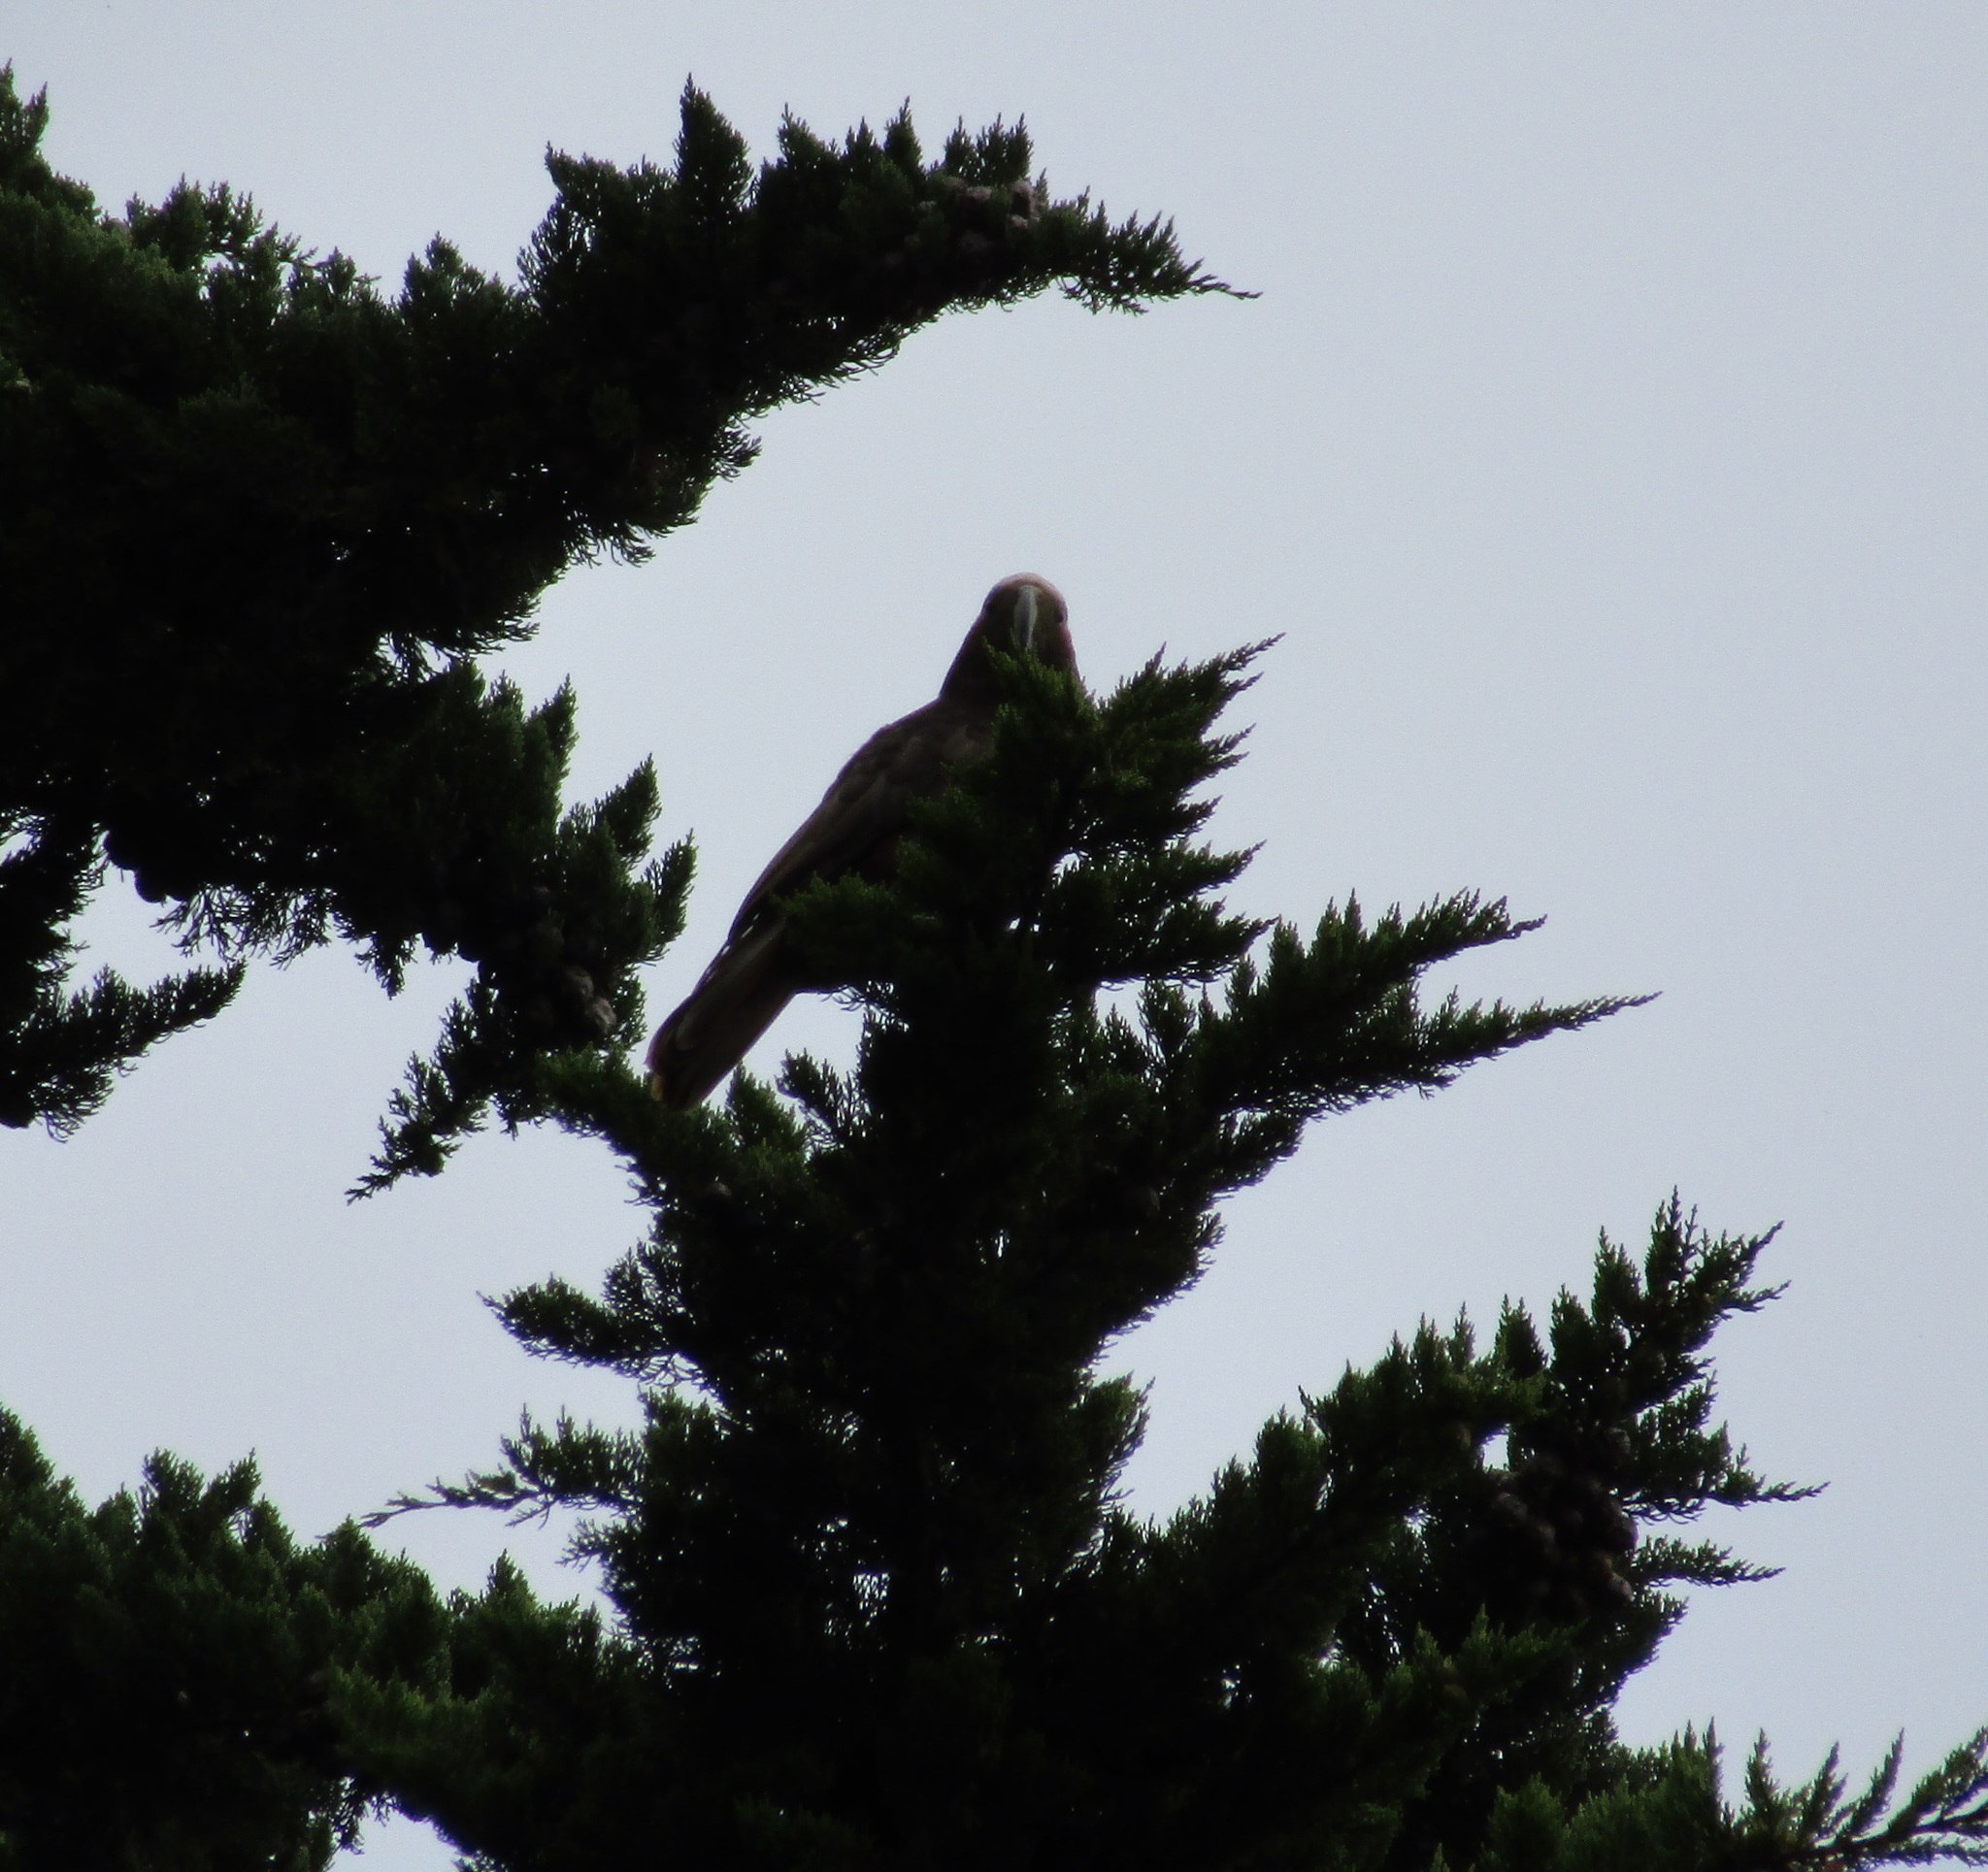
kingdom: Animalia
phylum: Chordata
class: Aves
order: Psittaciformes
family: Psittacidae
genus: Nestor
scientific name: Nestor meridionalis
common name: New zealand kaka
